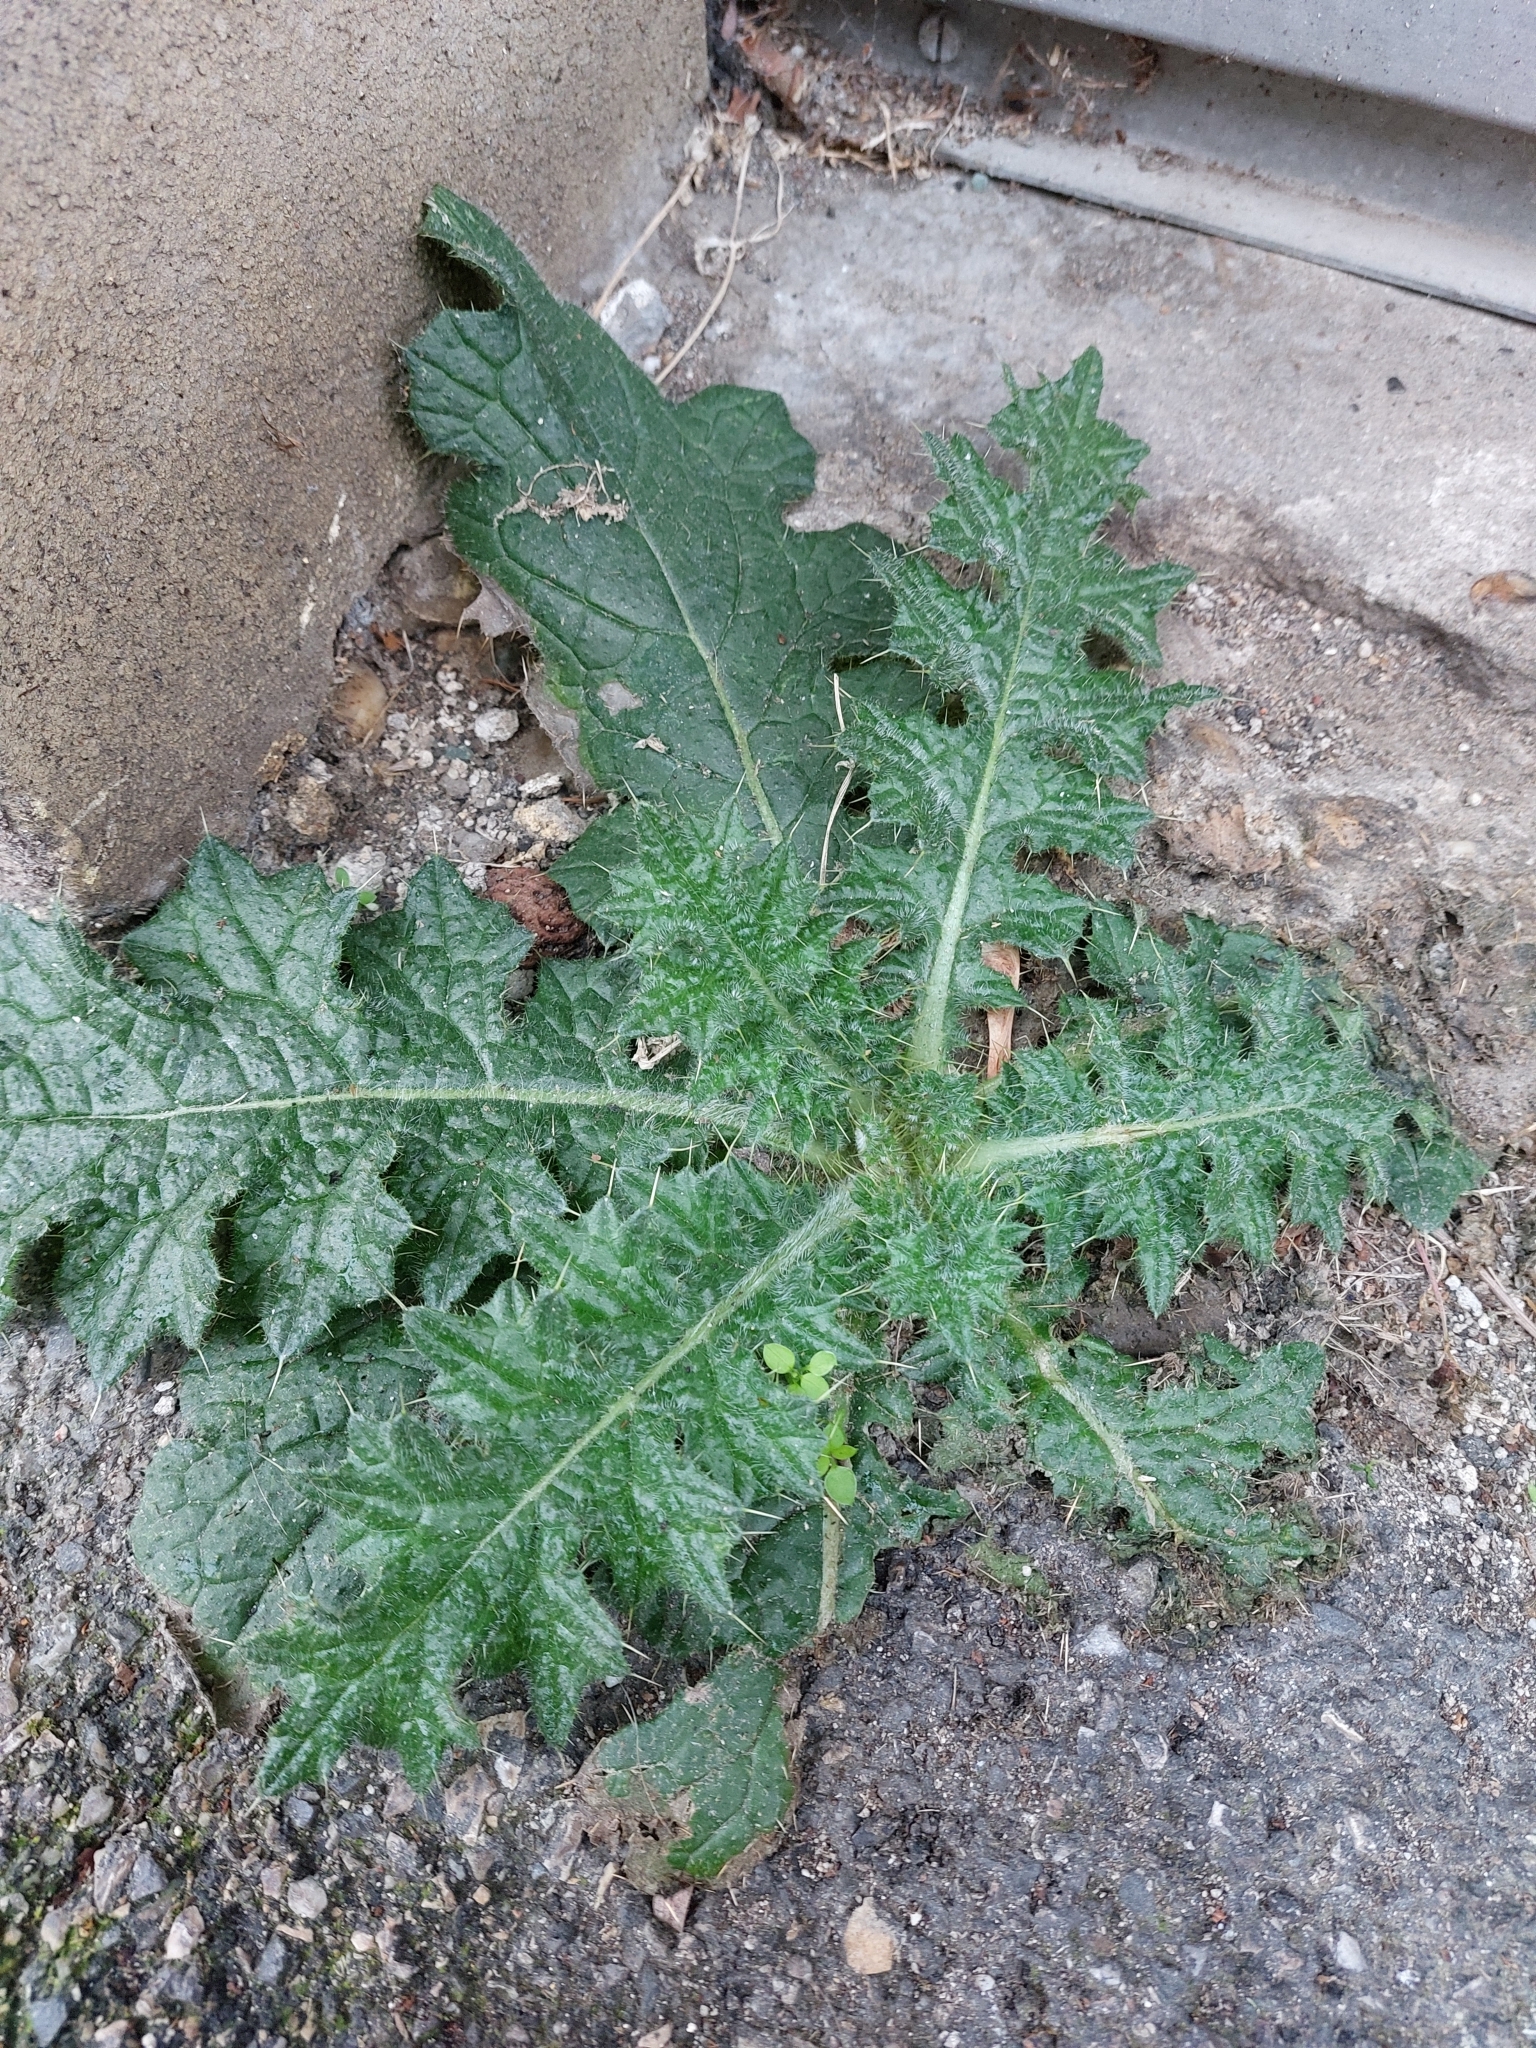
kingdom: Plantae
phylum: Tracheophyta
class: Magnoliopsida
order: Asterales
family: Asteraceae
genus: Cirsium
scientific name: Cirsium vulgare
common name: Bull thistle
